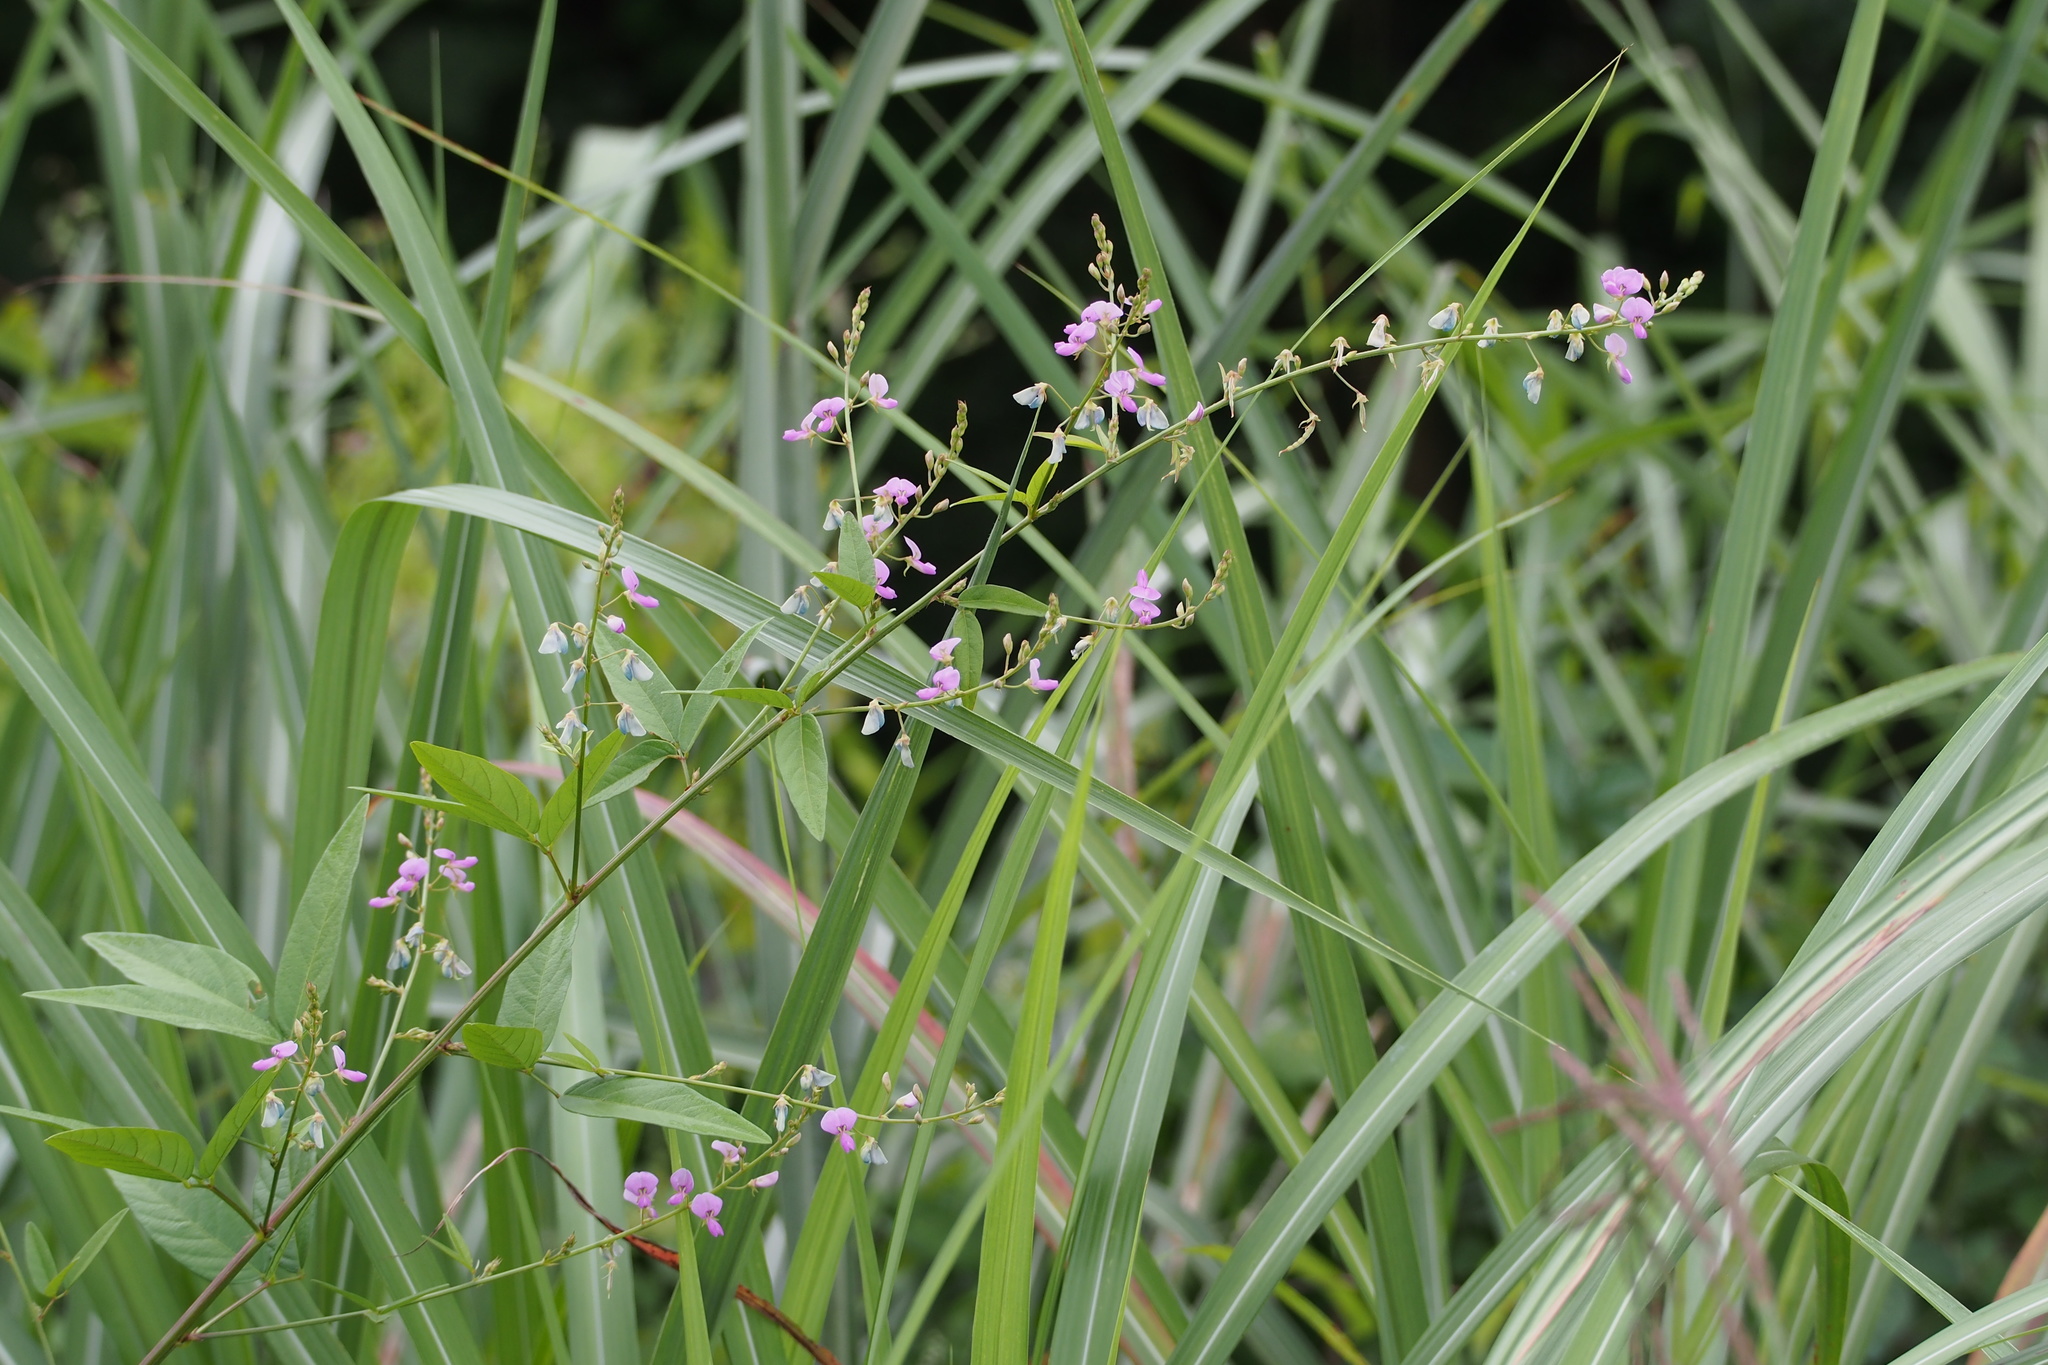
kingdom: Plantae
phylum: Tracheophyta
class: Magnoliopsida
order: Fabales
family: Fabaceae
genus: Desmodium
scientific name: Desmodium paniculatum
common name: Panicled tick-clover
